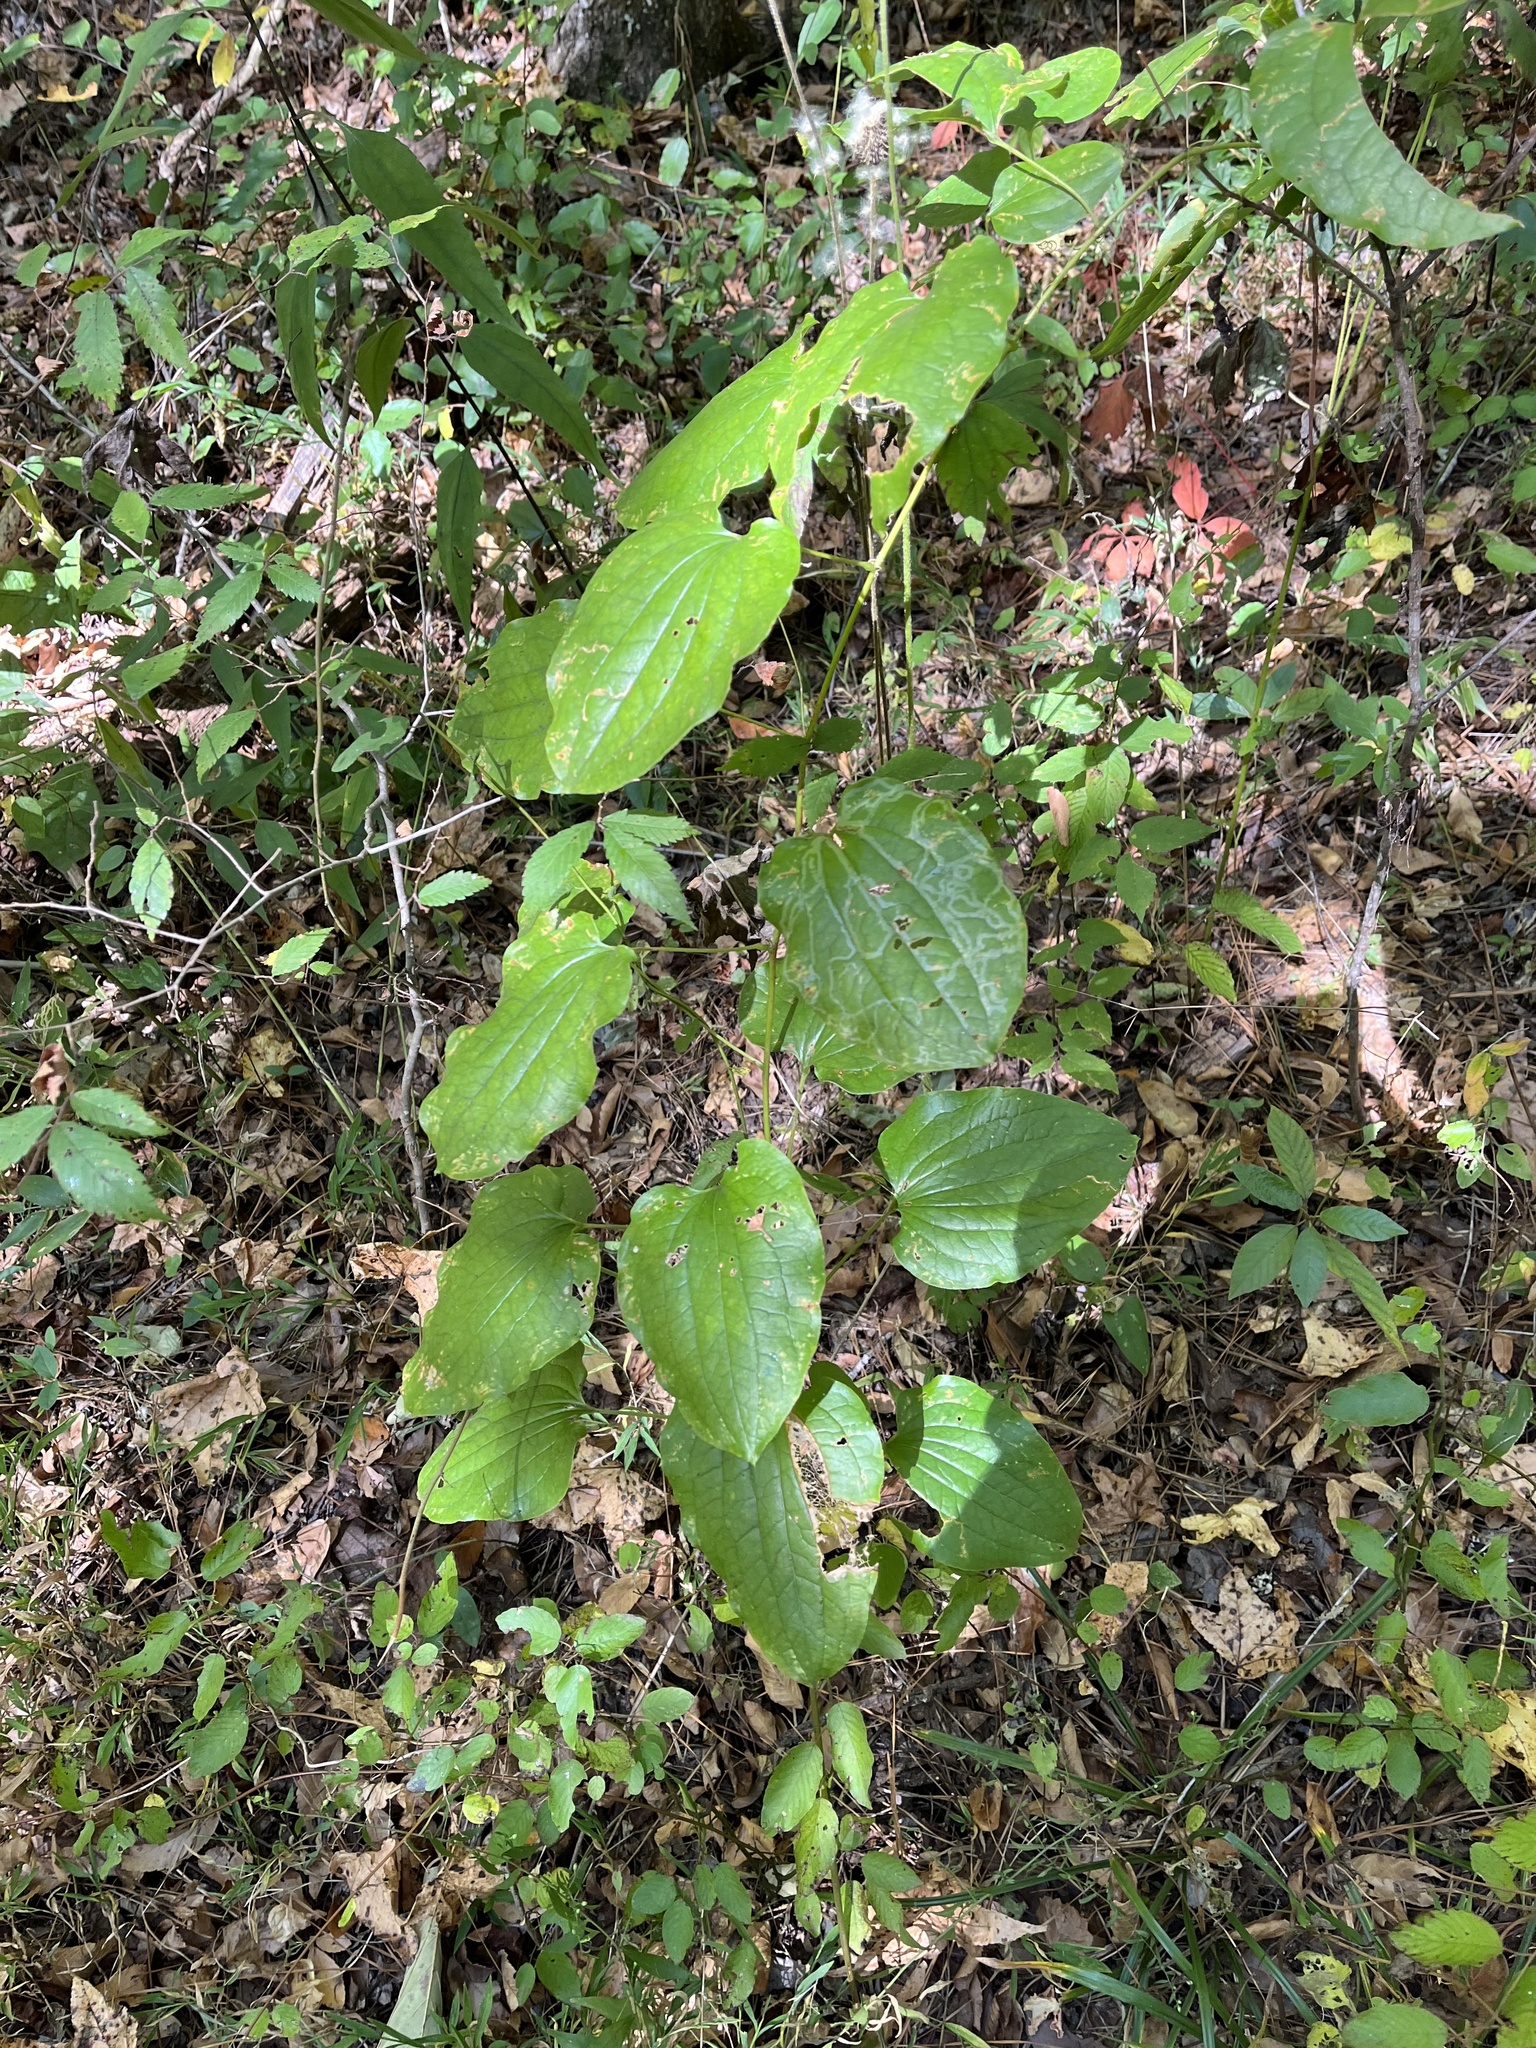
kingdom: Plantae
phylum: Tracheophyta
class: Liliopsida
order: Liliales
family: Smilacaceae
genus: Smilax
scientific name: Smilax herbacea
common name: Jacob's-ladder
